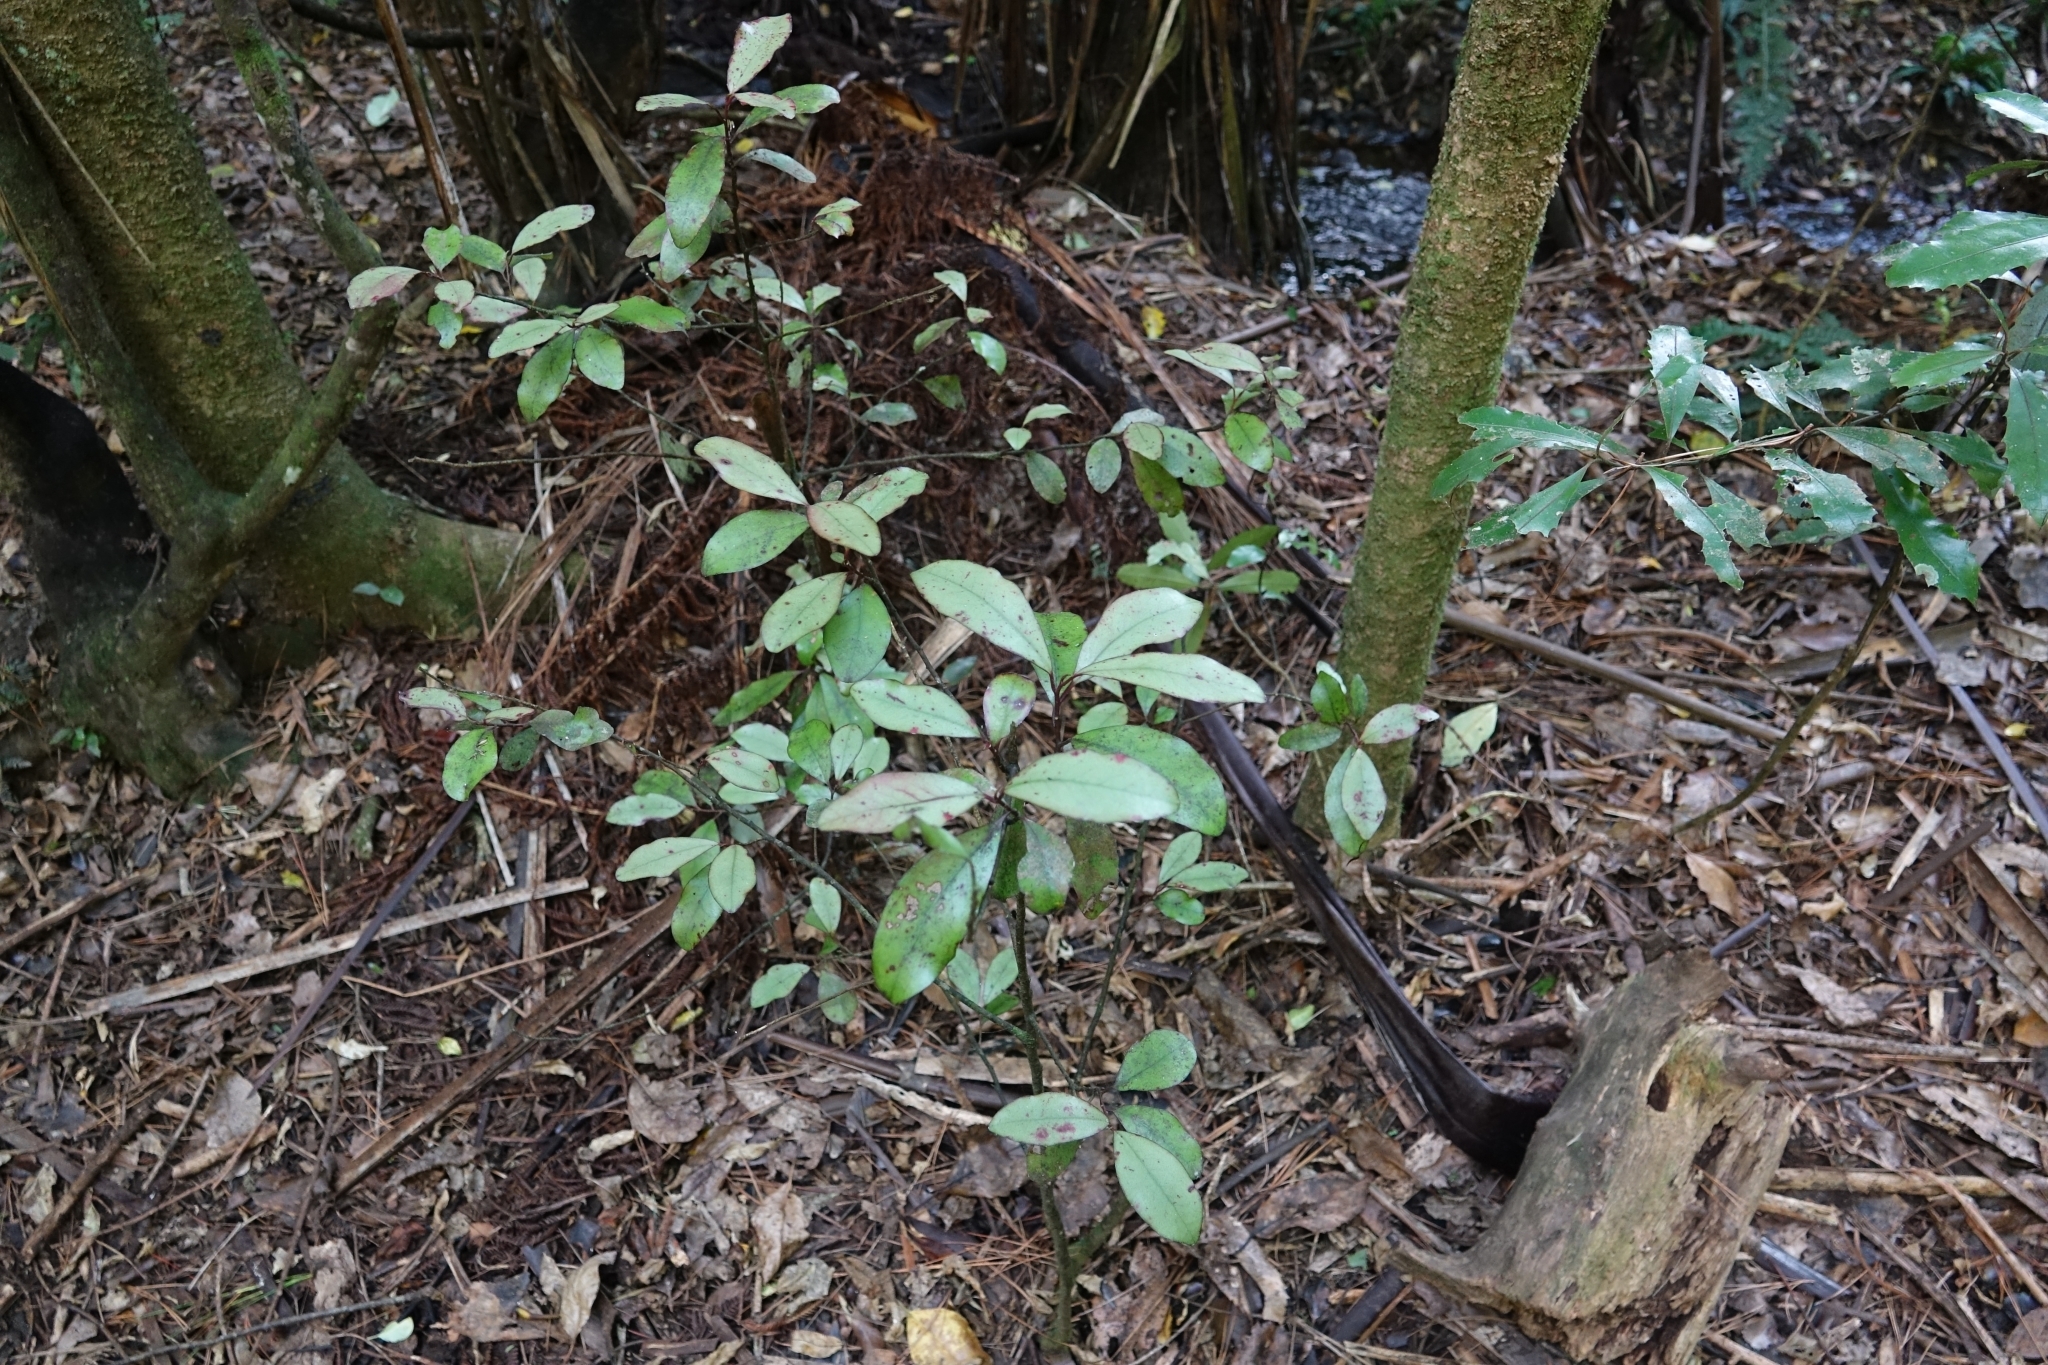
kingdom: Plantae
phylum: Tracheophyta
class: Magnoliopsida
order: Canellales
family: Winteraceae
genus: Pseudowintera
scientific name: Pseudowintera colorata
